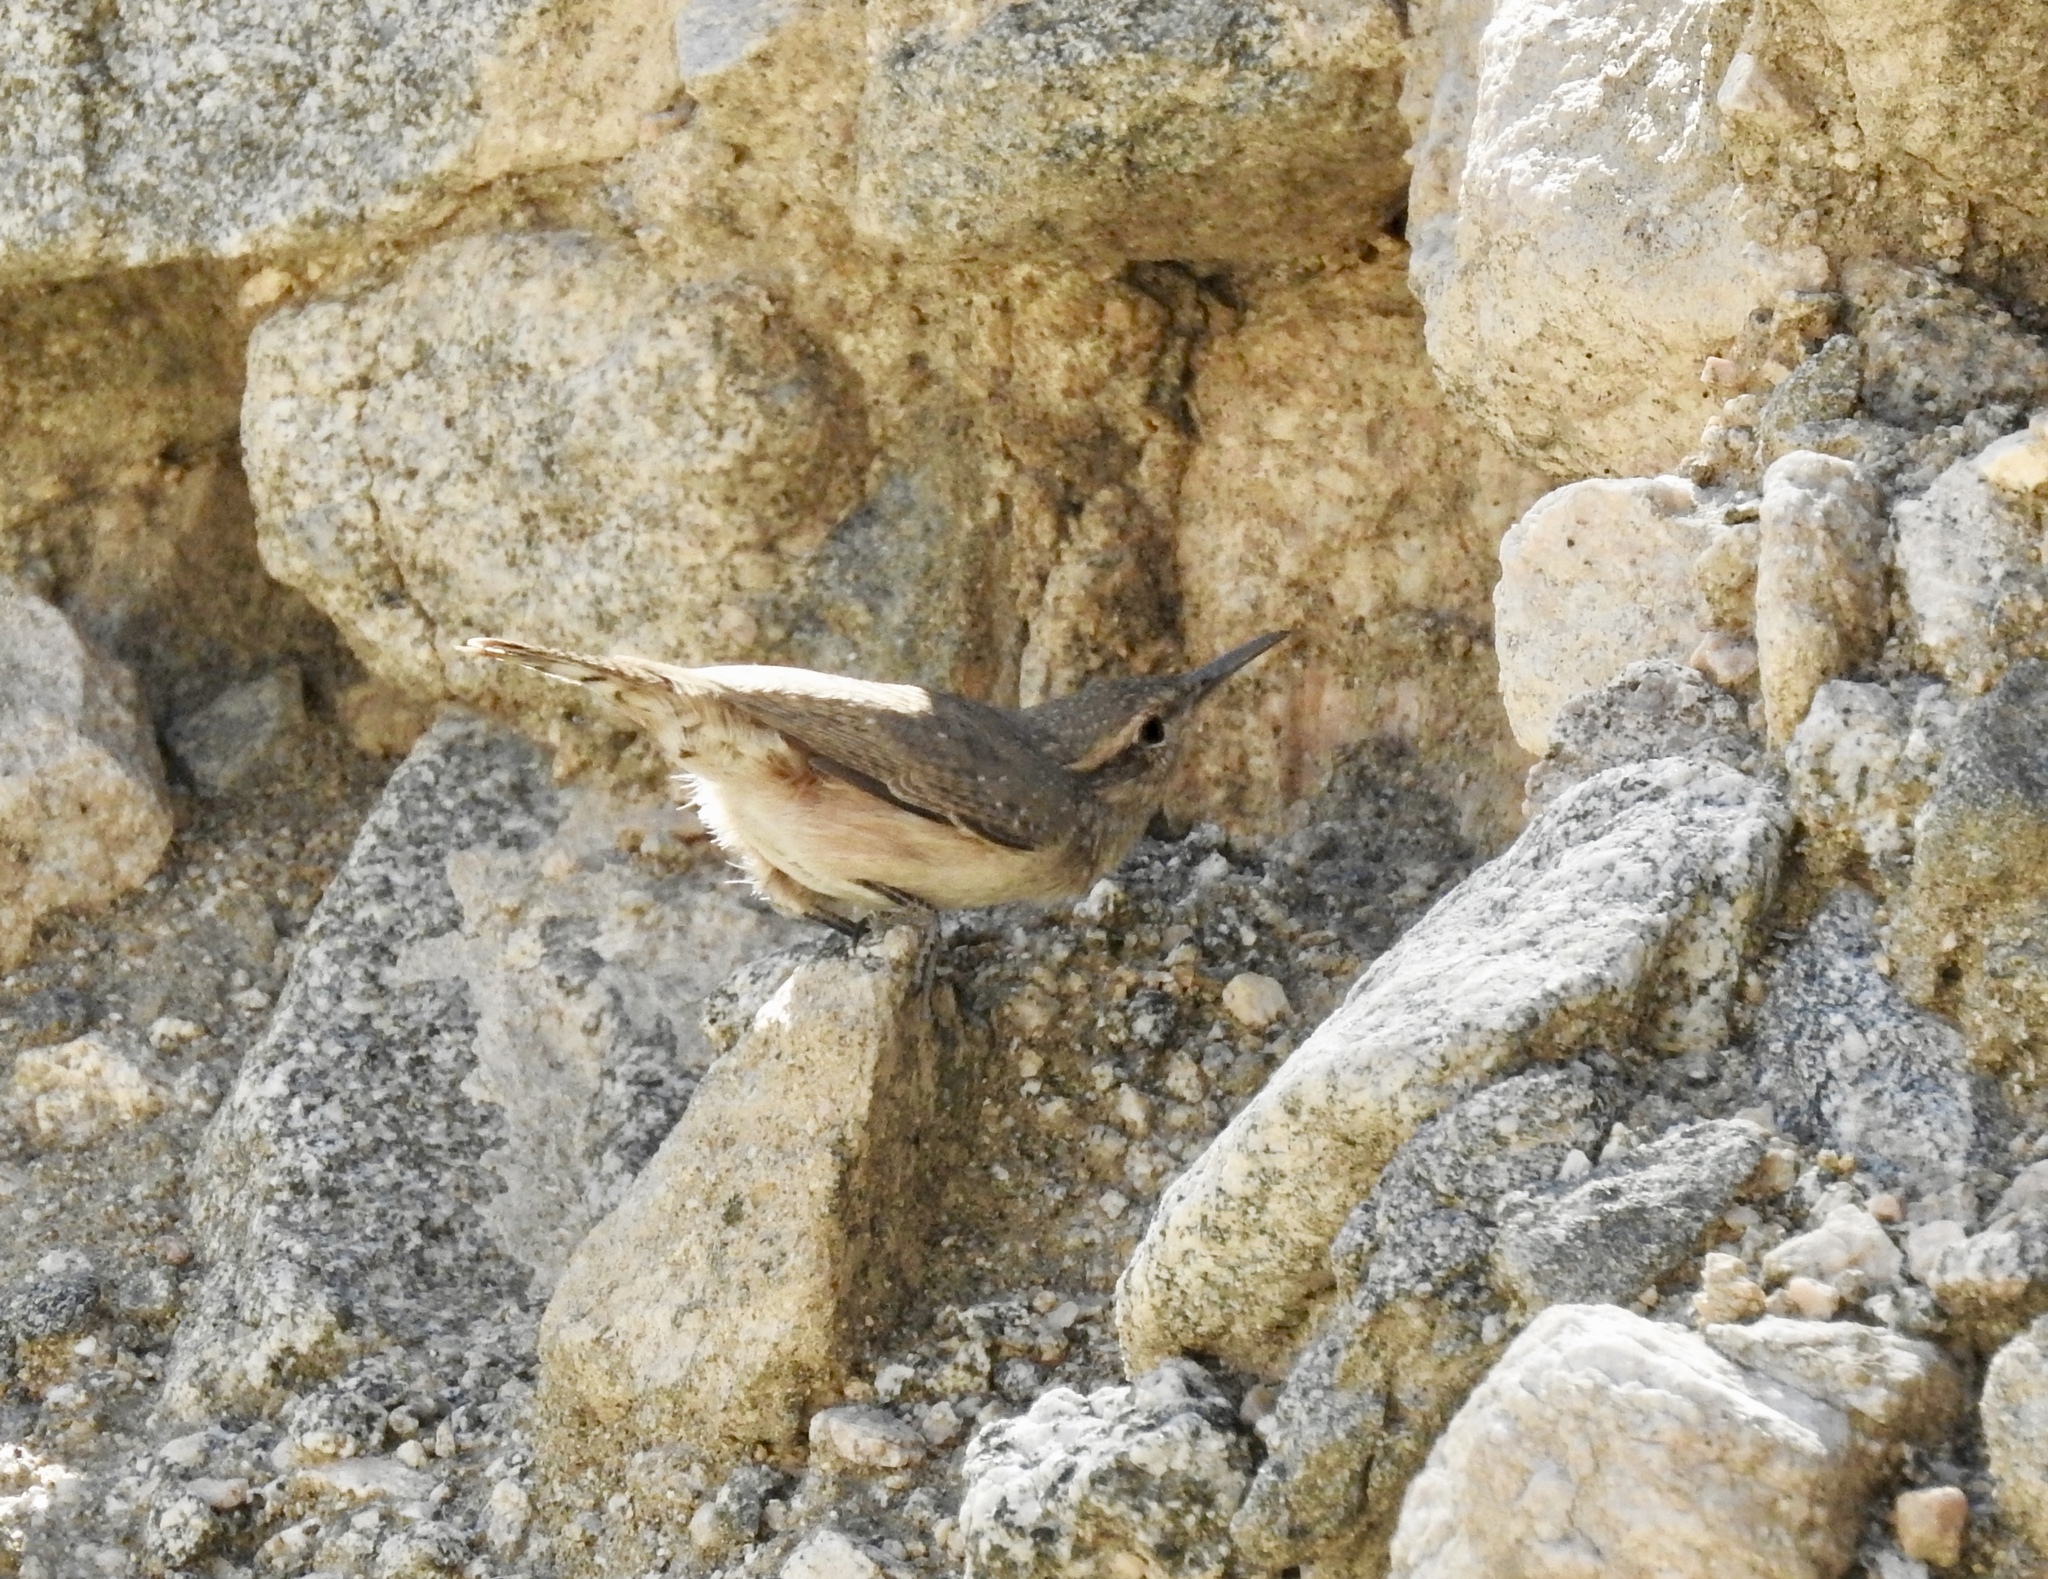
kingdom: Animalia
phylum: Chordata
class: Aves
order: Passeriformes
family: Troglodytidae
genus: Salpinctes
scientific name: Salpinctes obsoletus
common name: Rock wren
